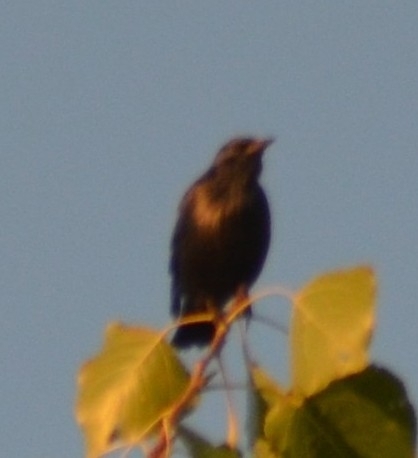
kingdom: Animalia
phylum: Chordata
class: Aves
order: Passeriformes
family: Sturnidae
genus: Sturnus
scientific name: Sturnus unicolor
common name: Spotless starling
